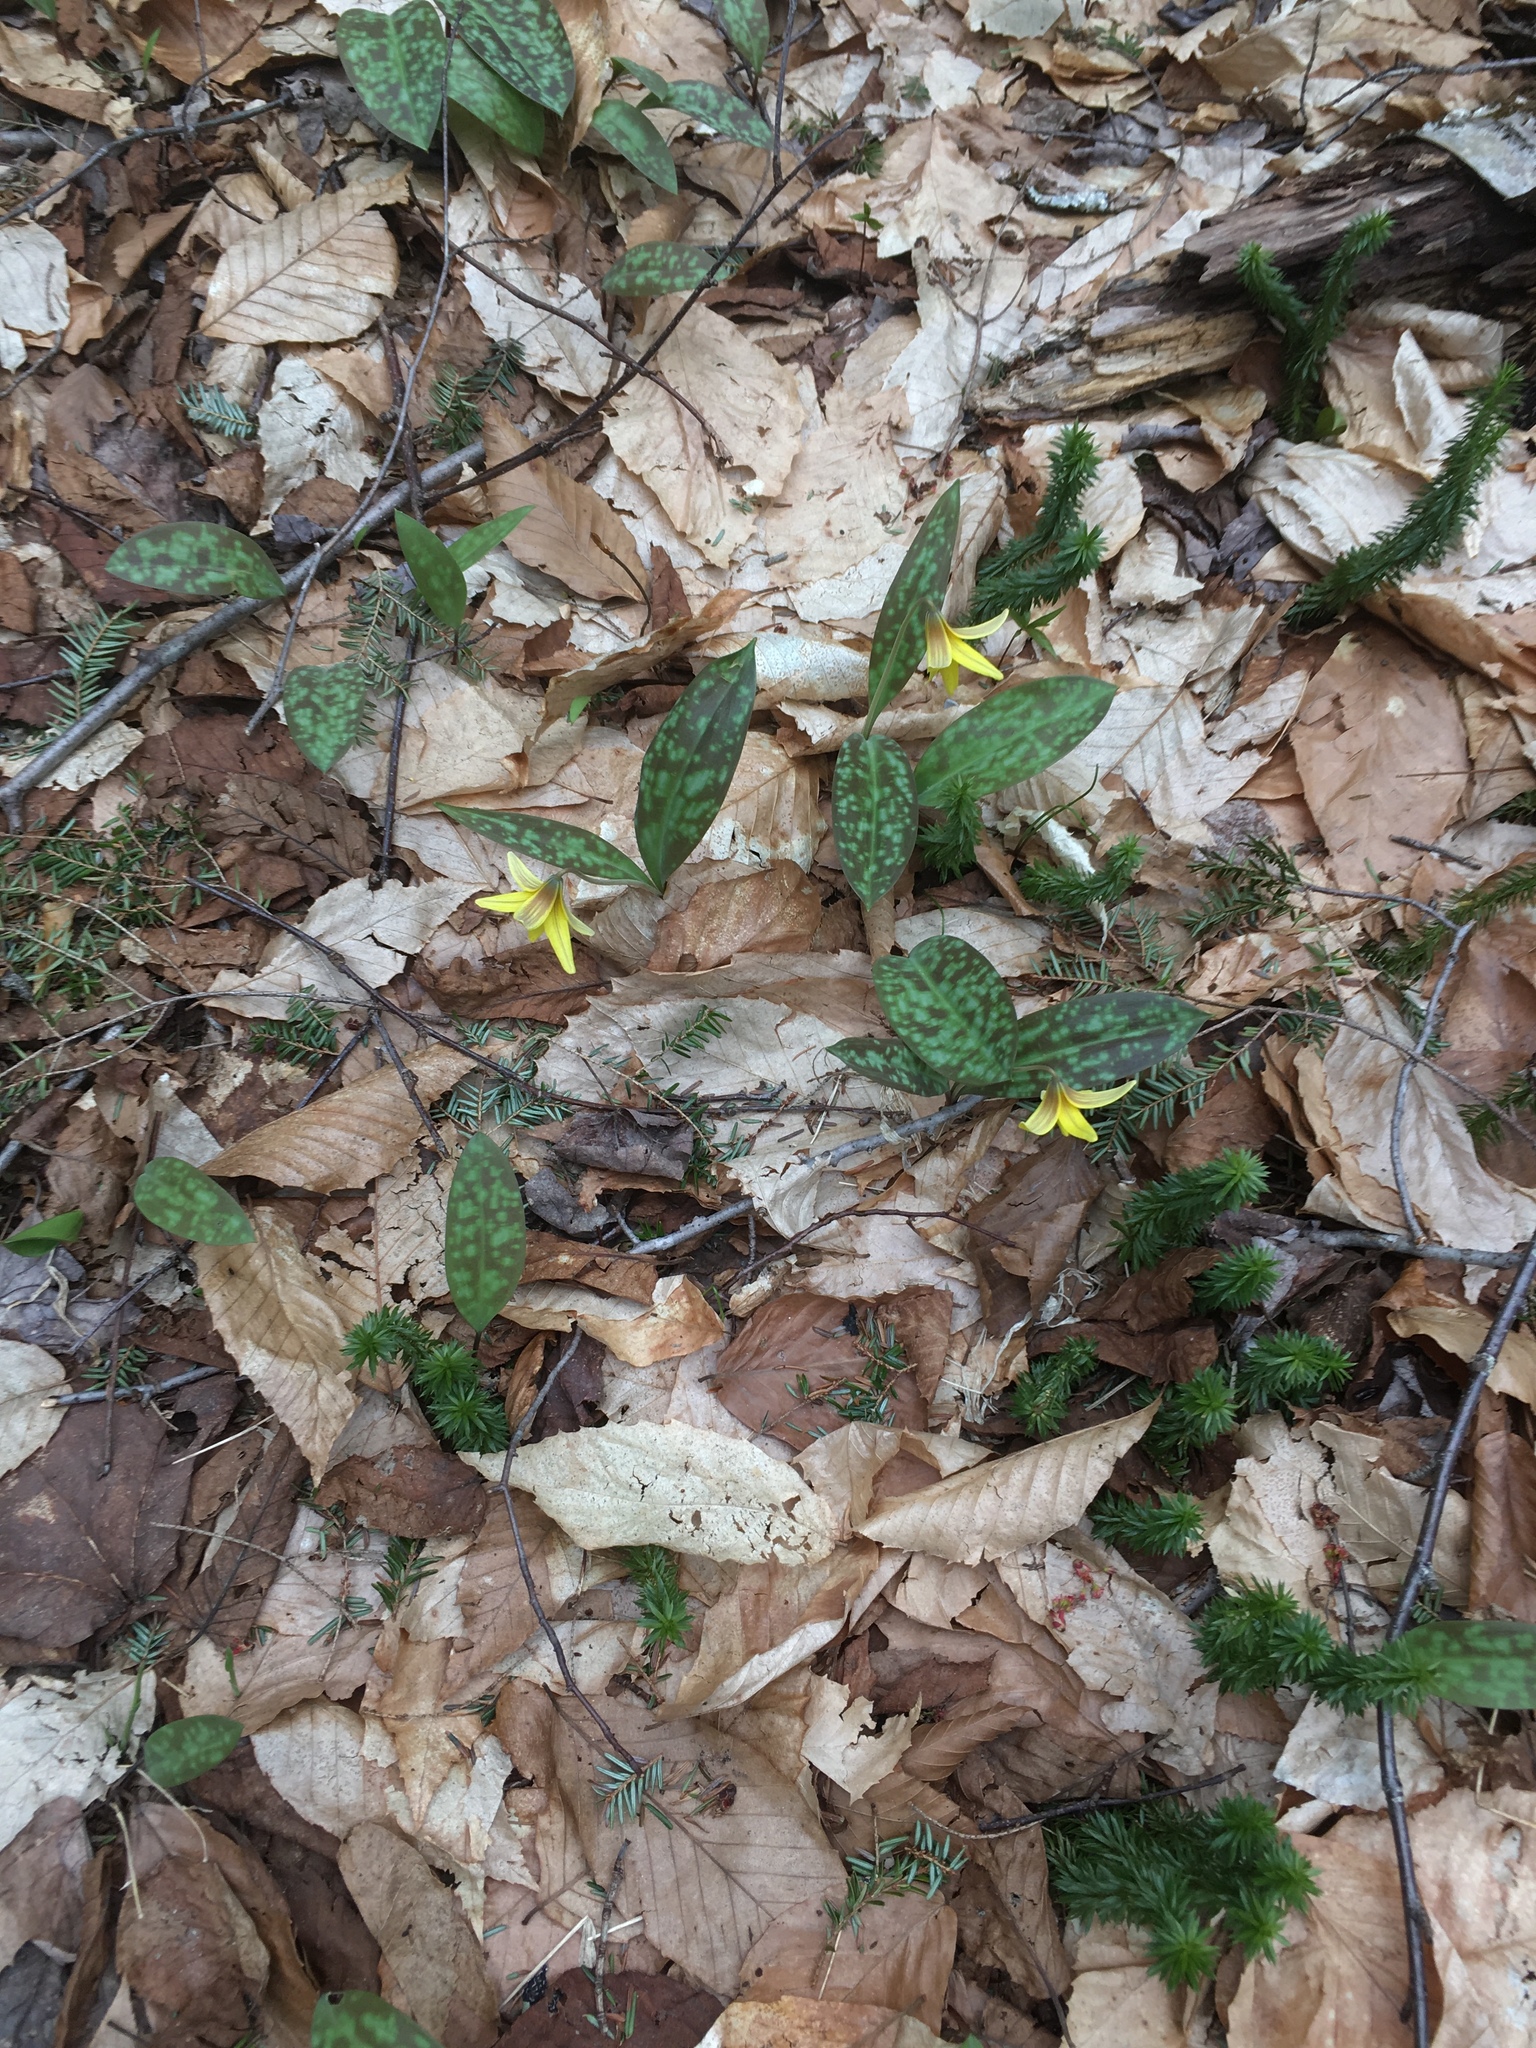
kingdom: Plantae
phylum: Tracheophyta
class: Liliopsida
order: Liliales
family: Liliaceae
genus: Erythronium
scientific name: Erythronium americanum
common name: Yellow adder's-tongue
